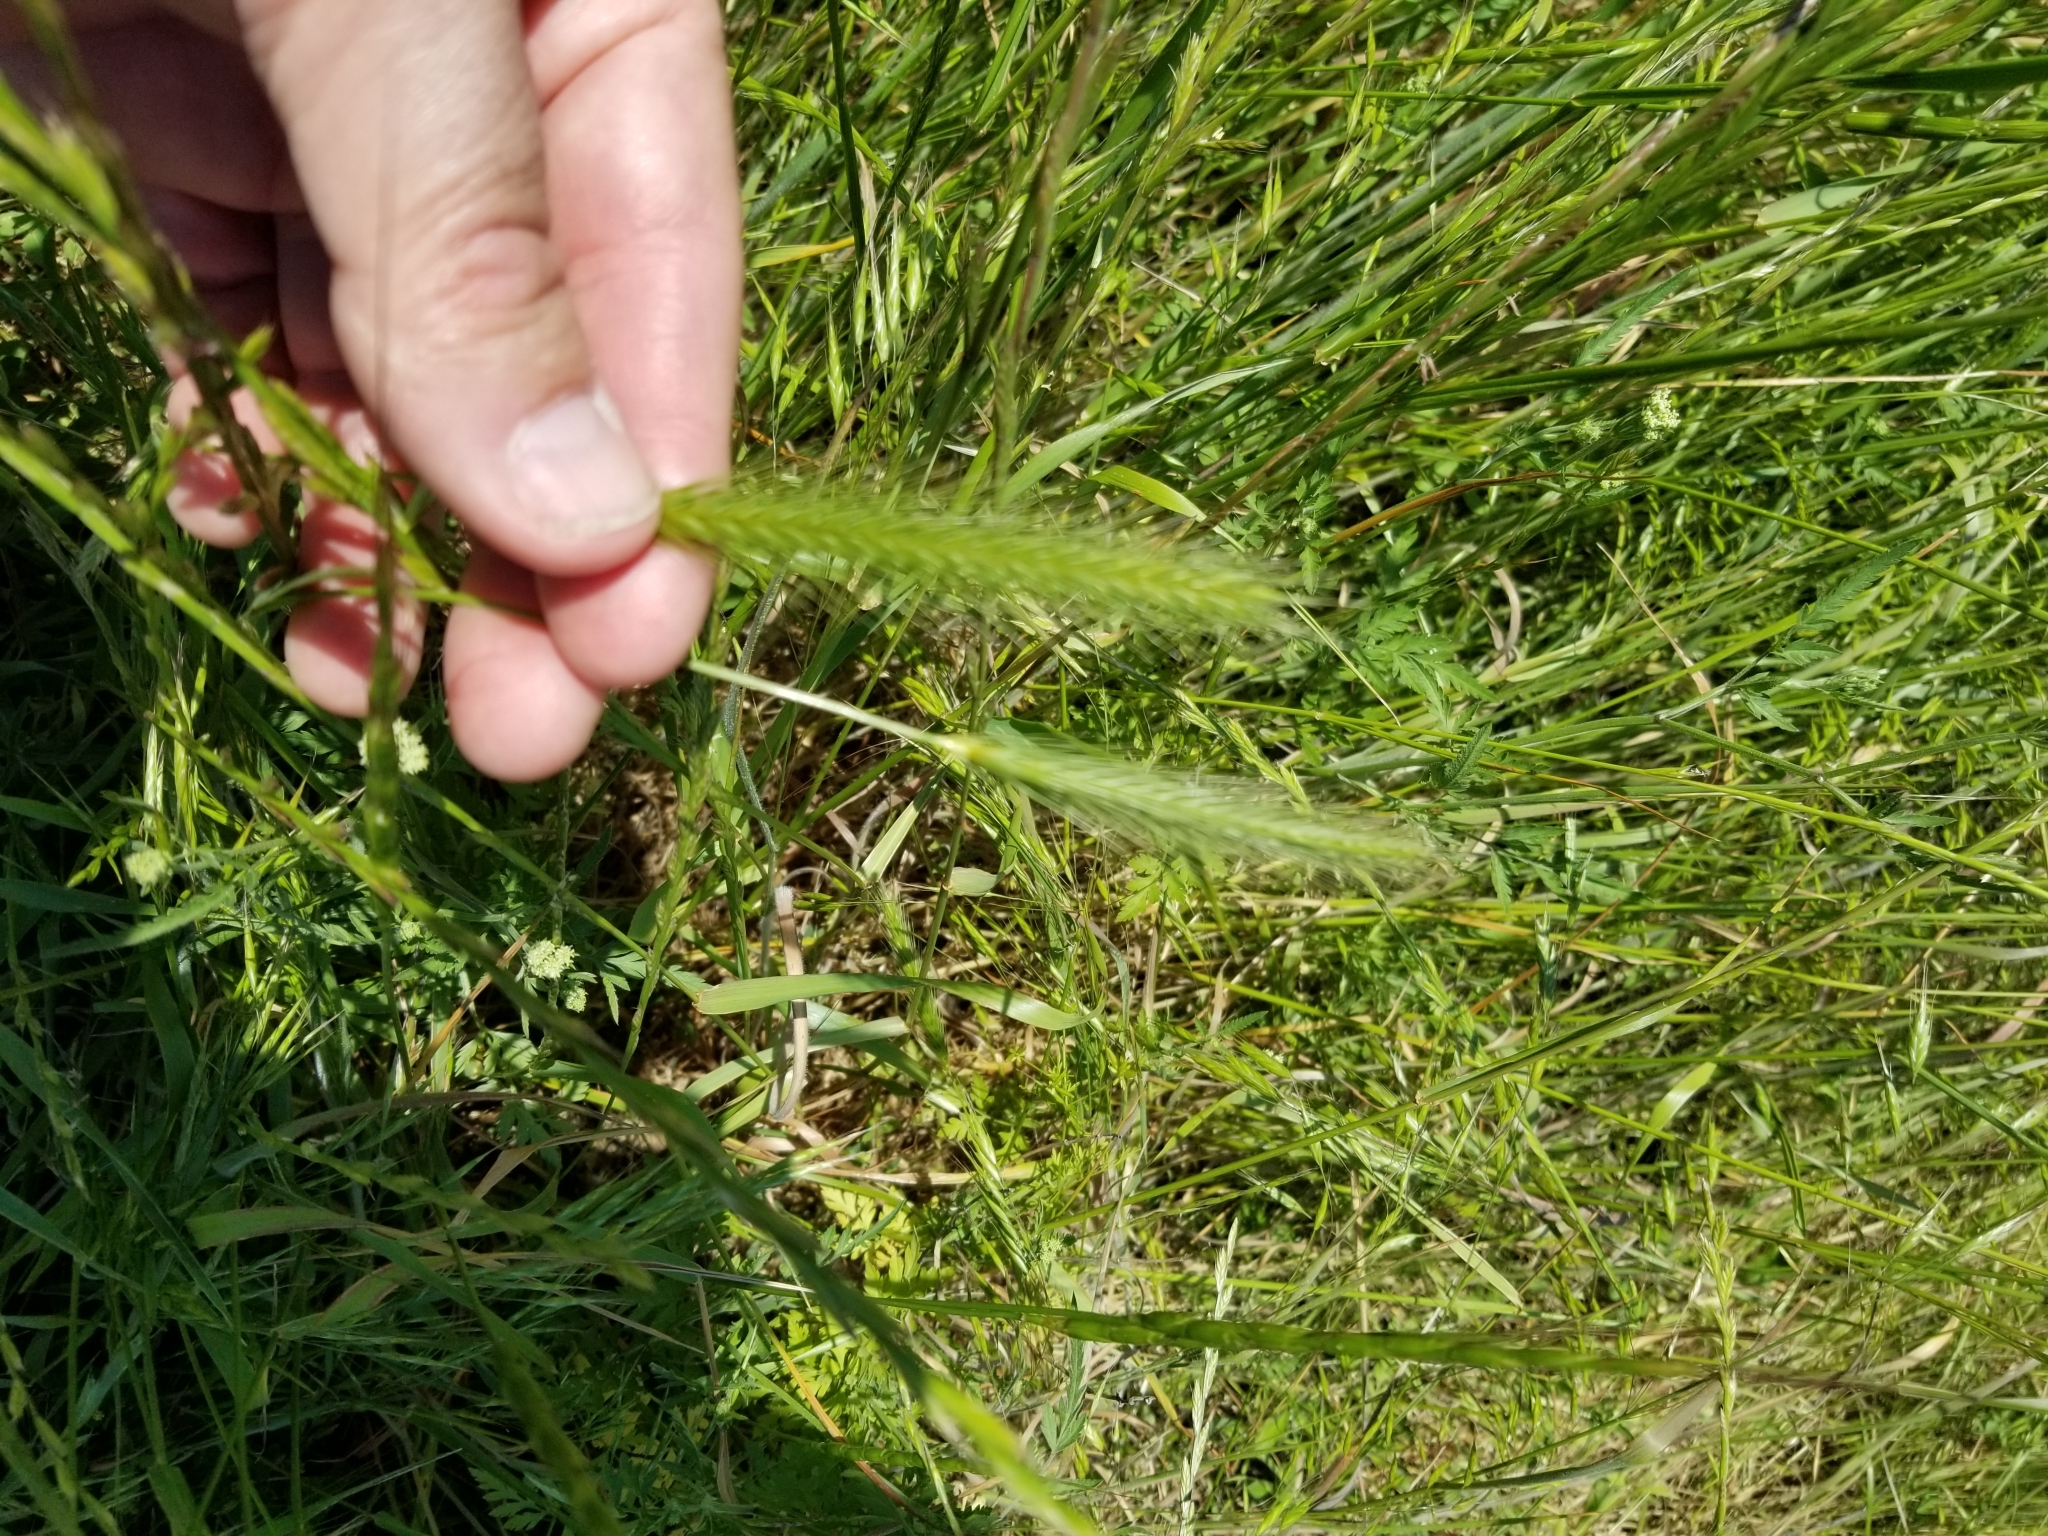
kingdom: Plantae
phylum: Tracheophyta
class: Liliopsida
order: Poales
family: Poaceae
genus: Hordeum
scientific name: Hordeum pusillum
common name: Little barley
